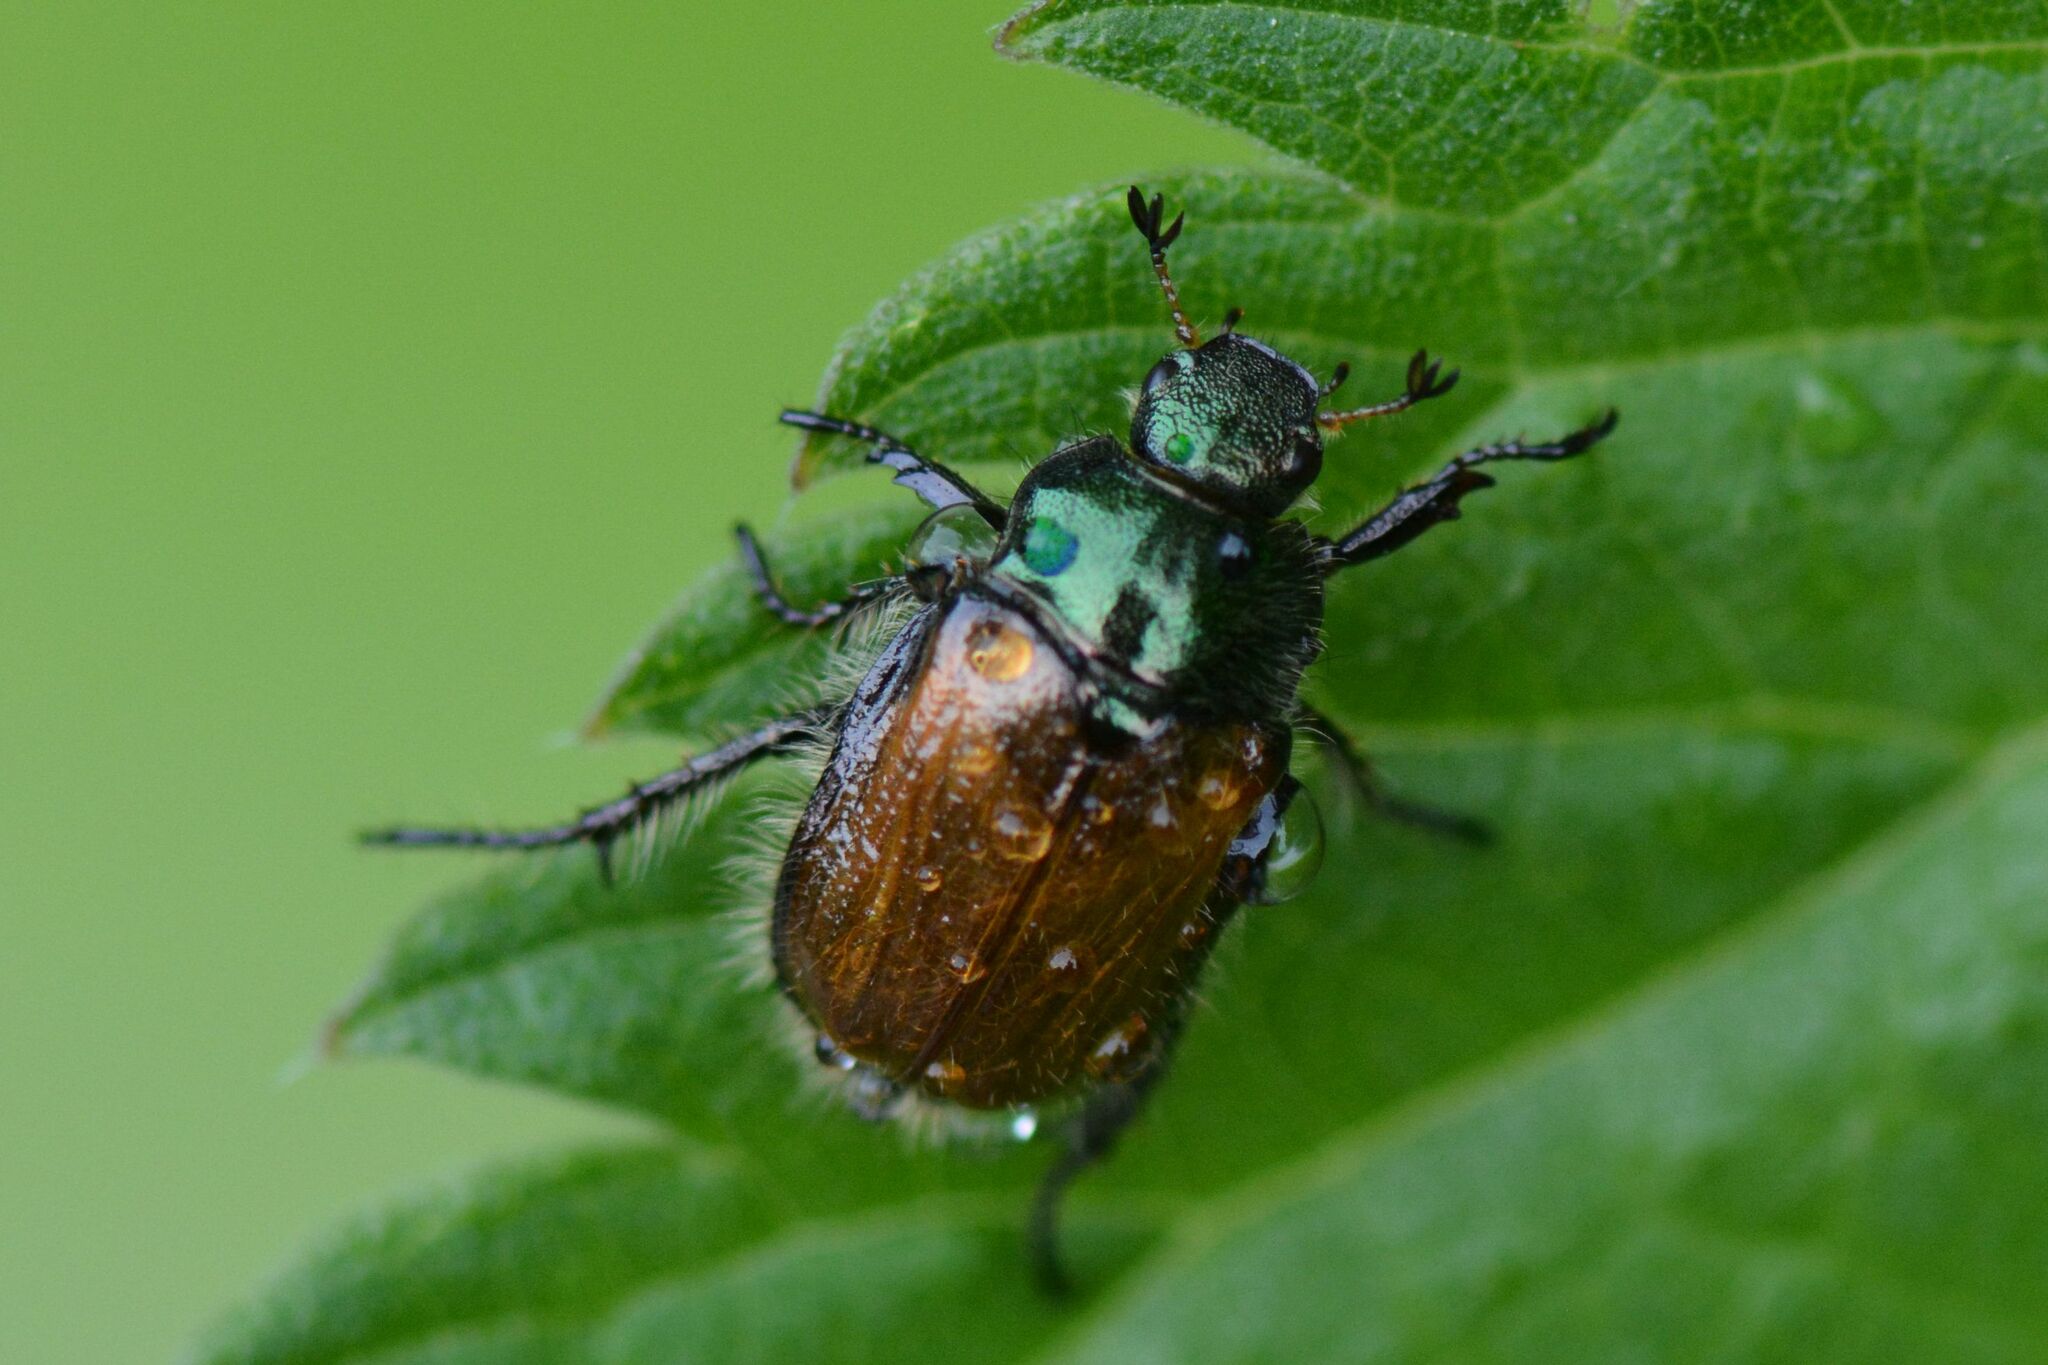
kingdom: Animalia
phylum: Arthropoda
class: Insecta
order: Coleoptera
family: Scarabaeidae
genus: Phyllopertha
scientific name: Phyllopertha horticola
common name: Garden chafer
